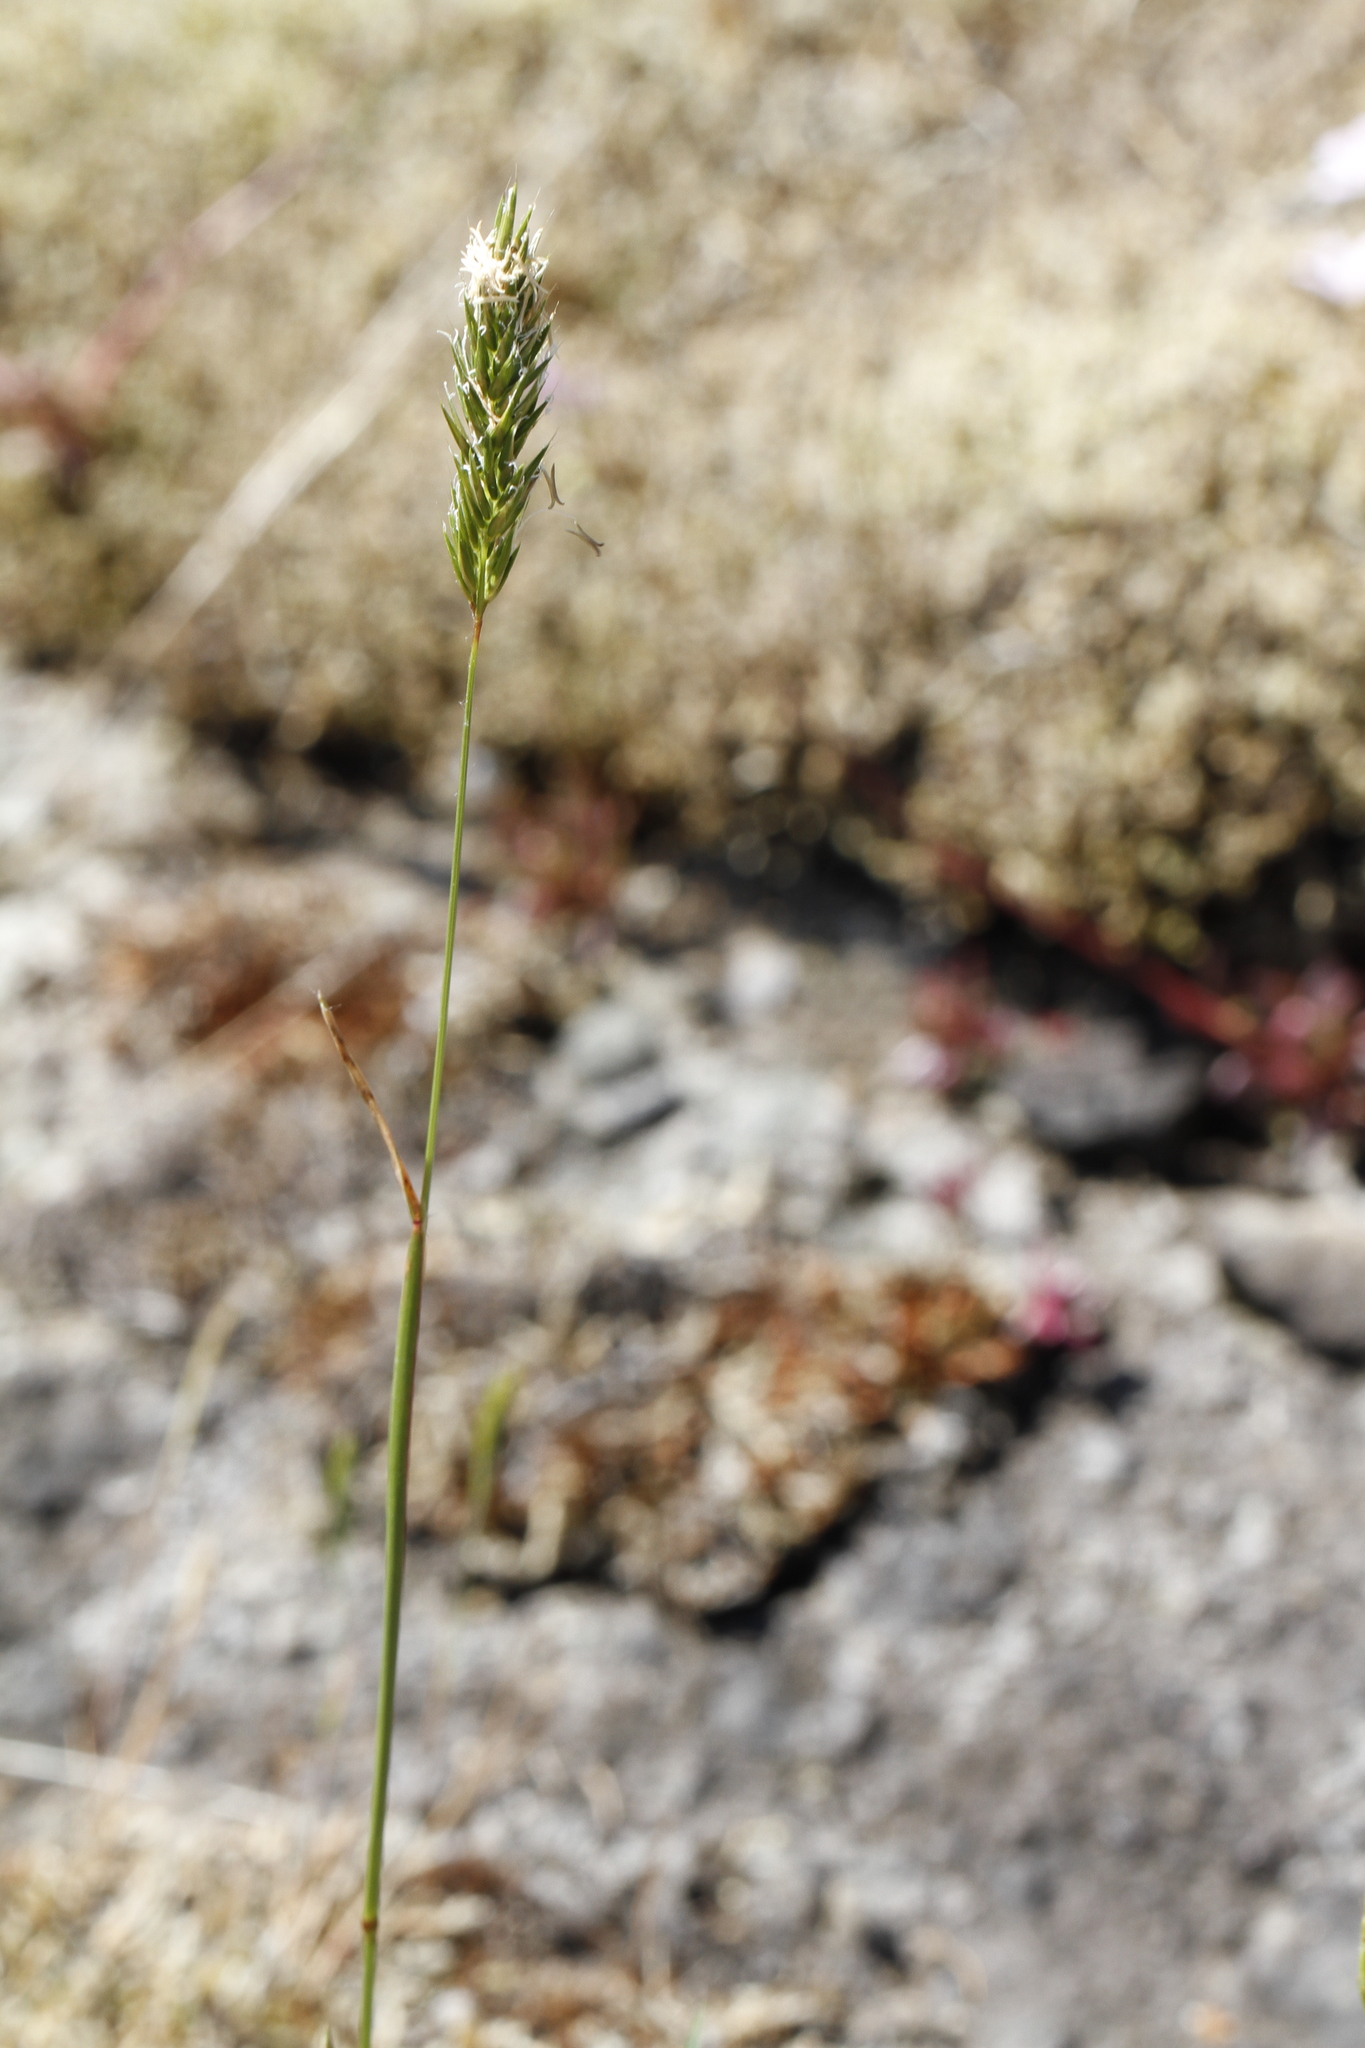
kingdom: Plantae
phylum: Tracheophyta
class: Liliopsida
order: Poales
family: Poaceae
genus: Anthoxanthum
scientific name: Anthoxanthum odoratum
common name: Sweet vernalgrass
